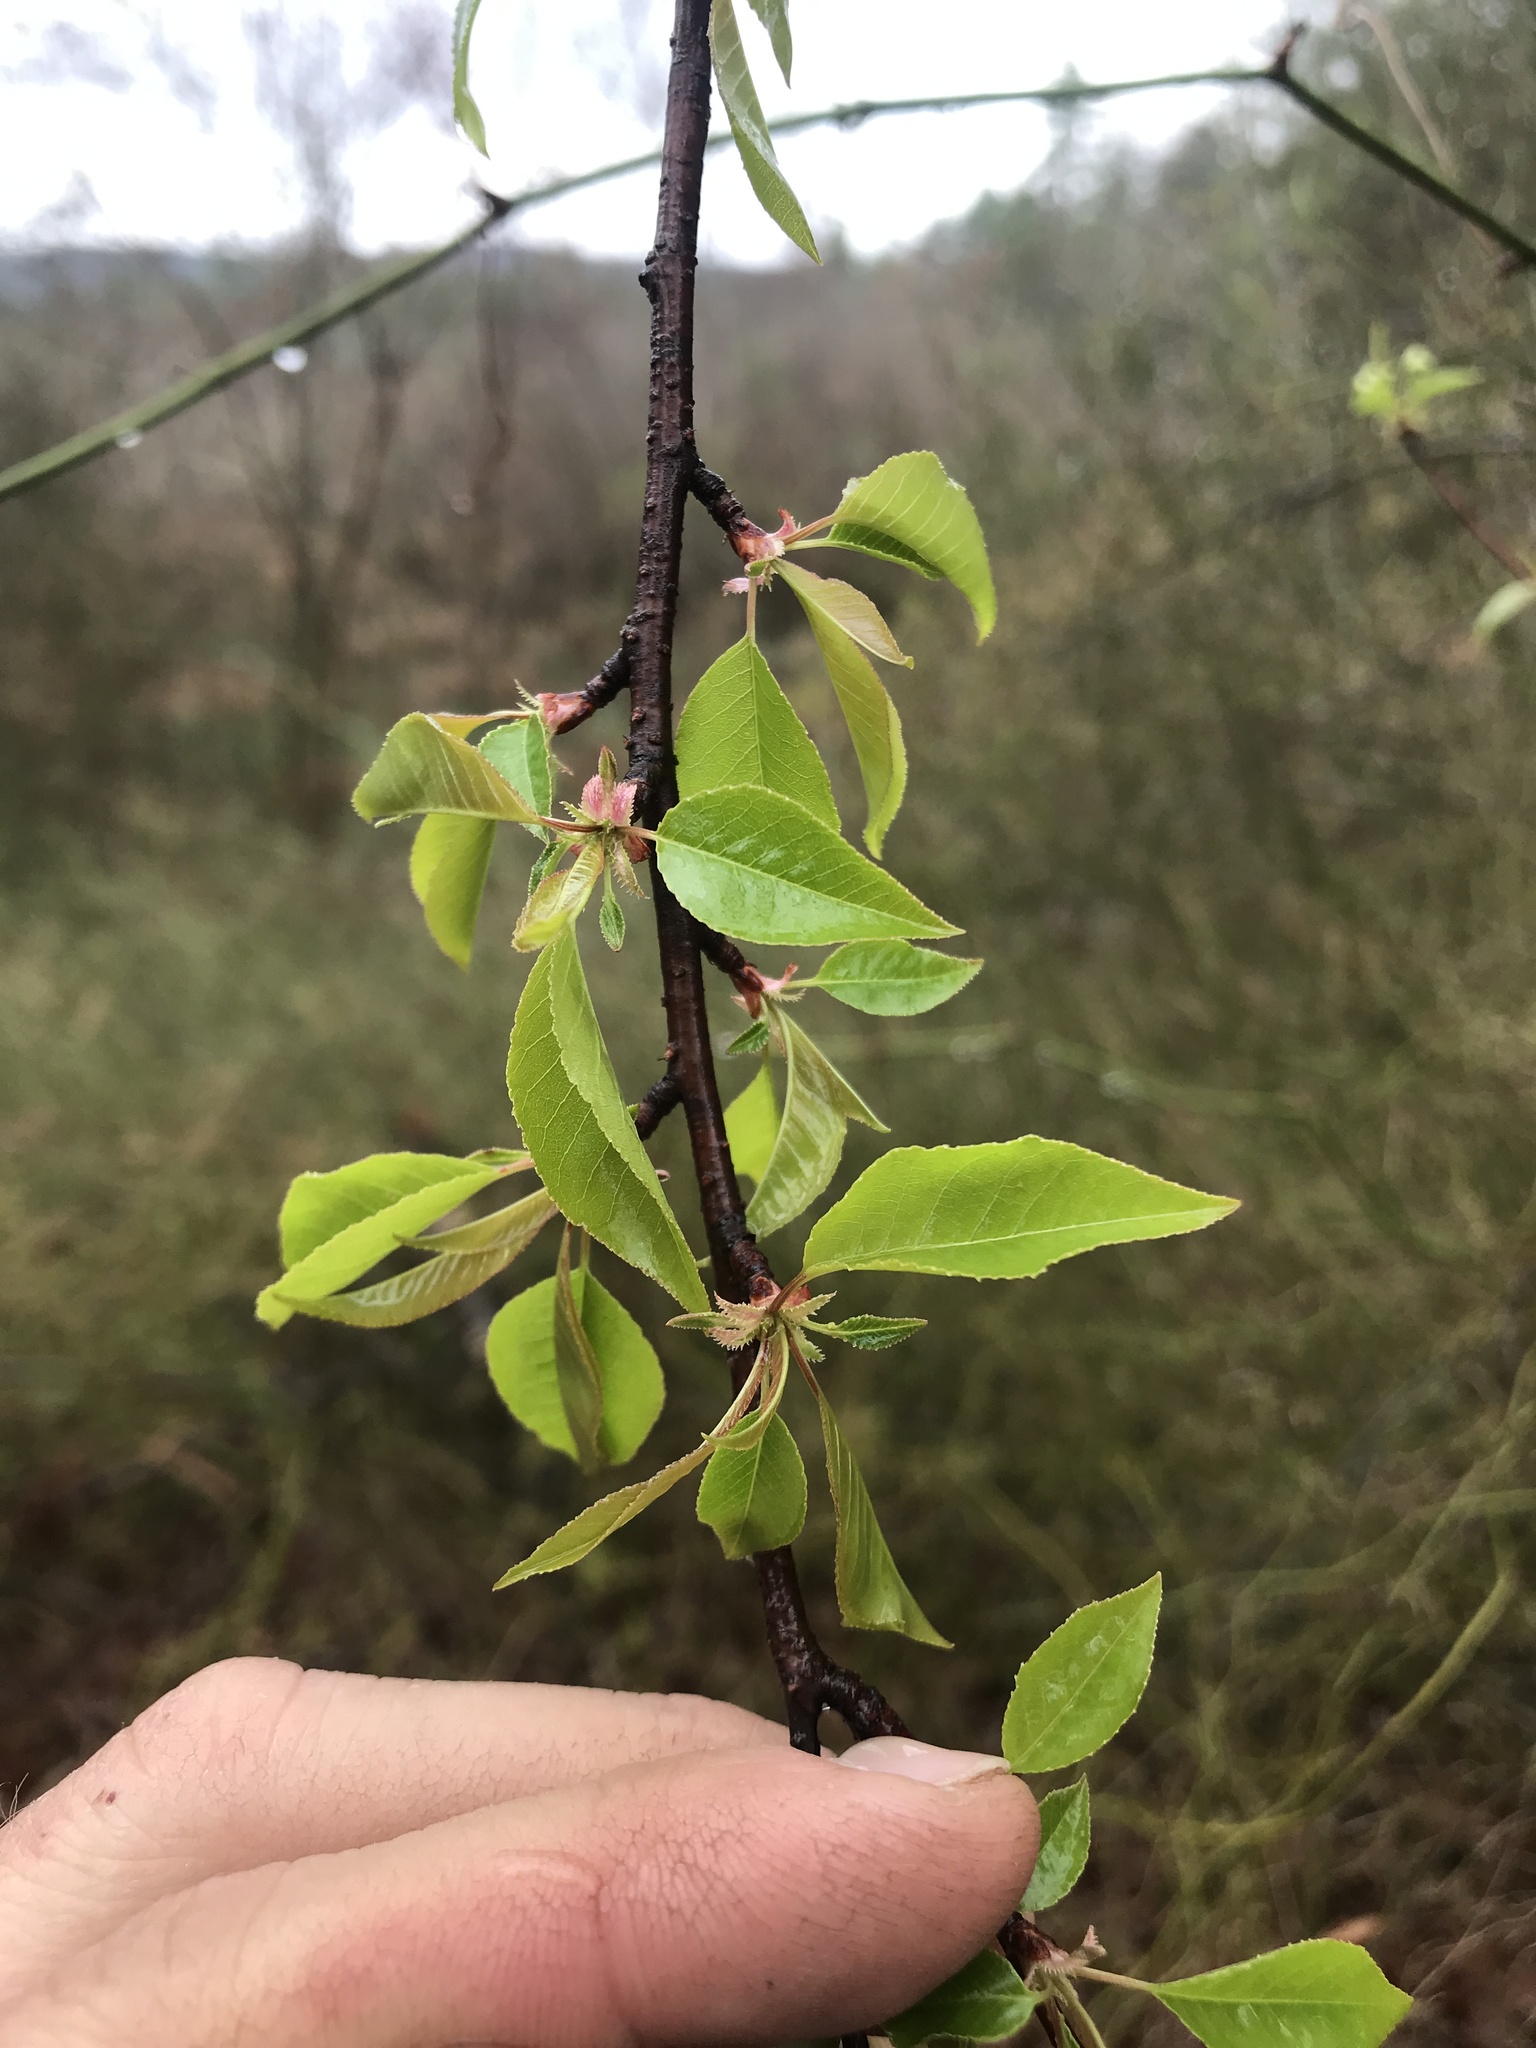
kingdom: Plantae
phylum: Tracheophyta
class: Magnoliopsida
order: Rosales
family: Rosaceae
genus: Prunus
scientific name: Prunus pensylvanica
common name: Pin cherry
